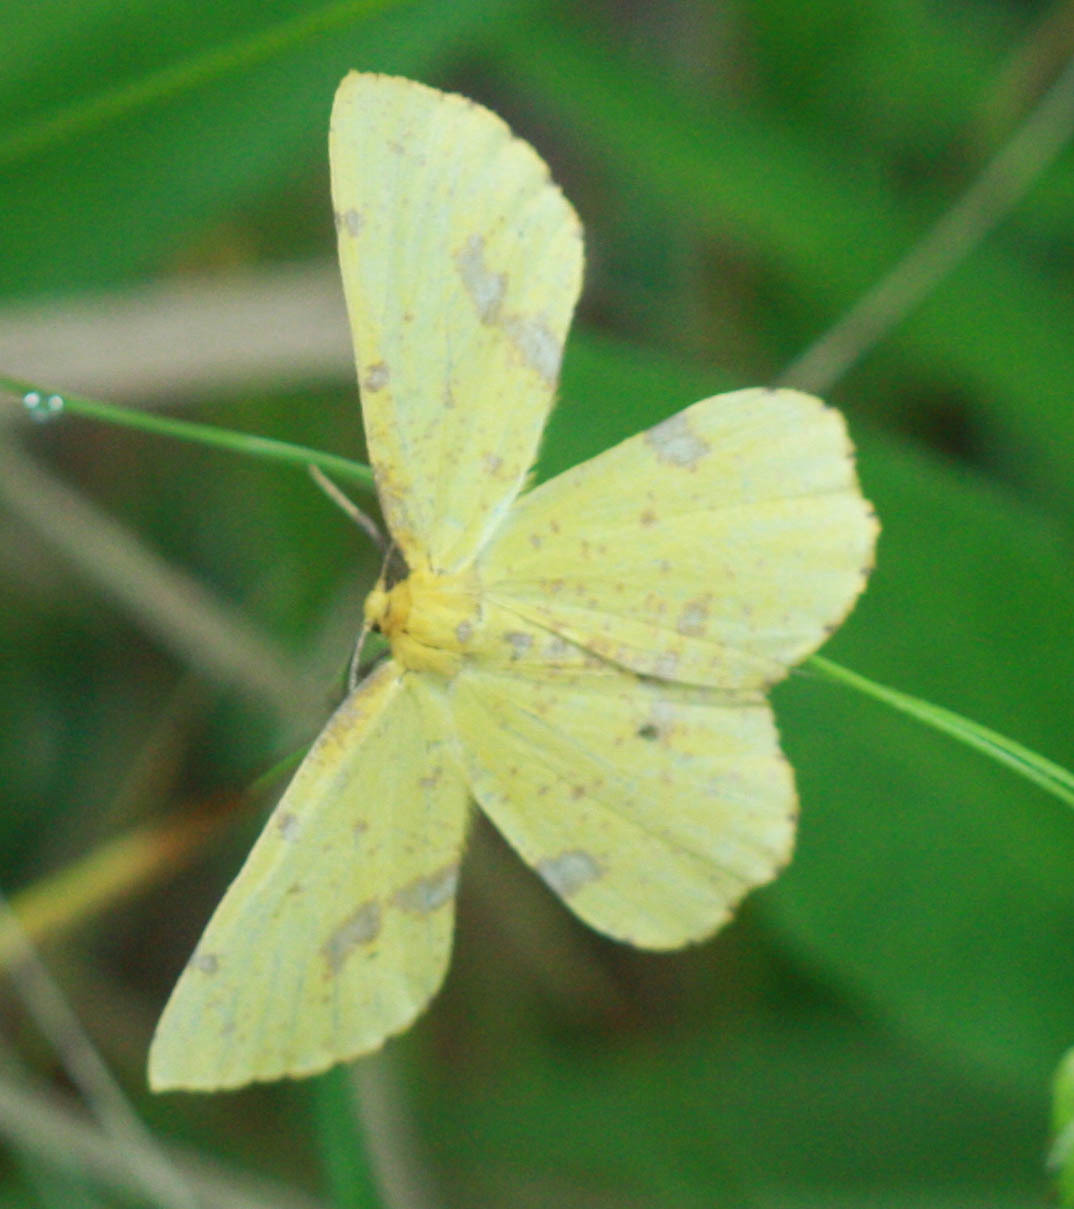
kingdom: Animalia
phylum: Arthropoda
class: Insecta
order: Lepidoptera
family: Geometridae
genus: Xanthotype
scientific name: Xanthotype
